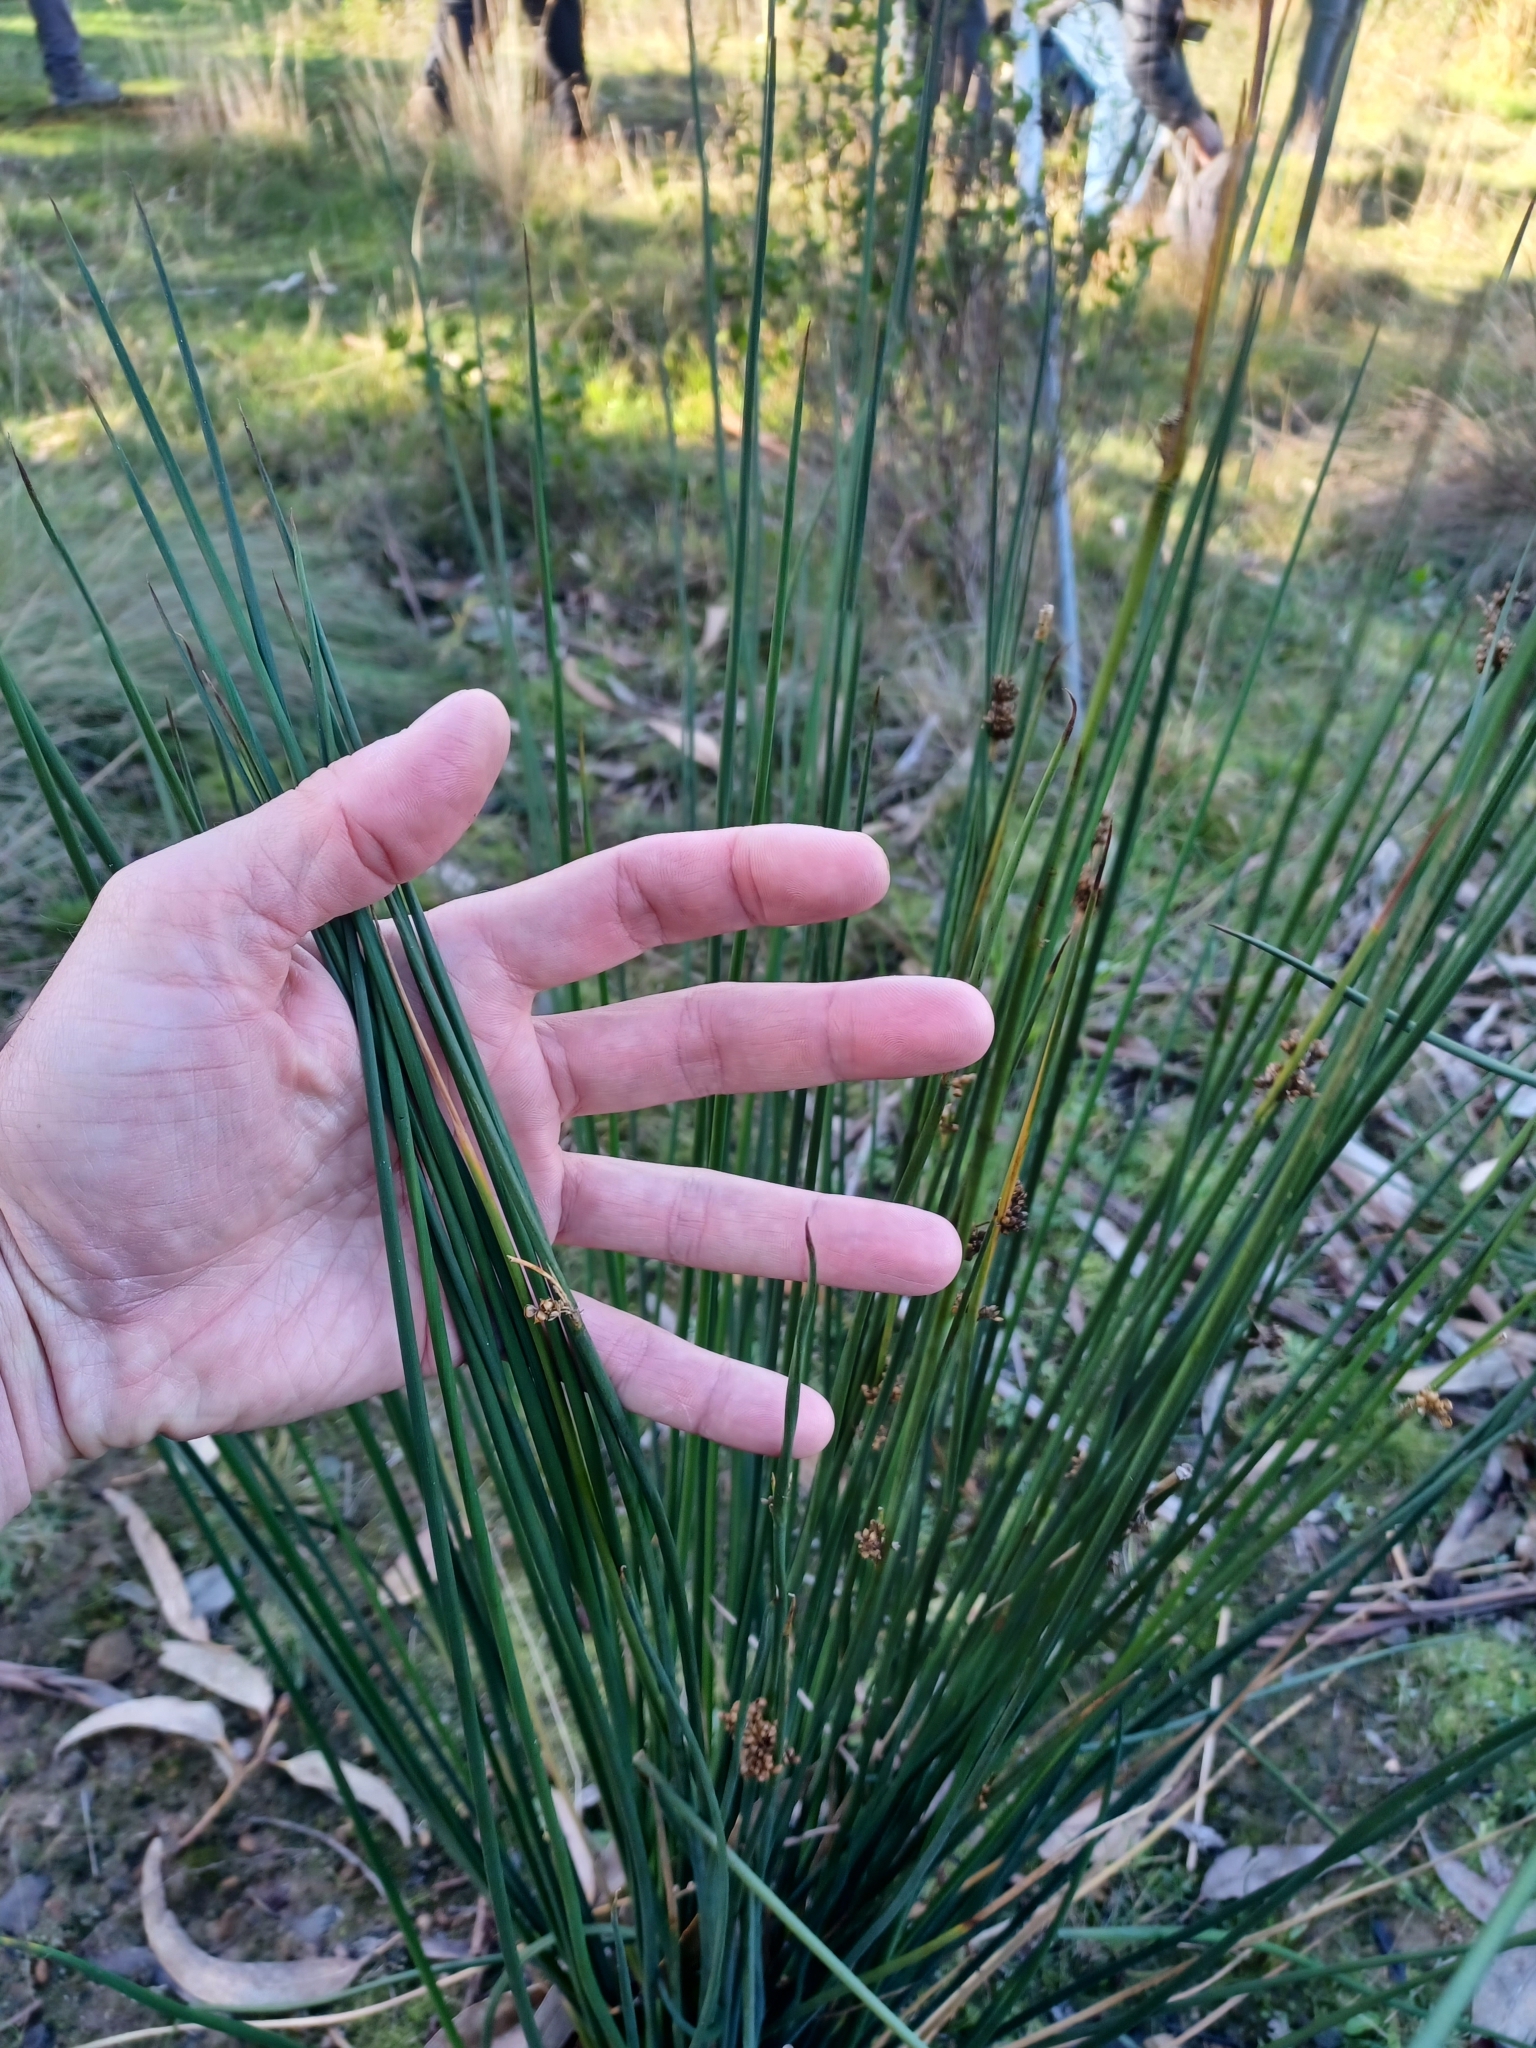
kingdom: Plantae
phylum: Tracheophyta
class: Liliopsida
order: Poales
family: Juncaceae
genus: Juncus
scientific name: Juncus pallidus
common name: Great soft-rush
